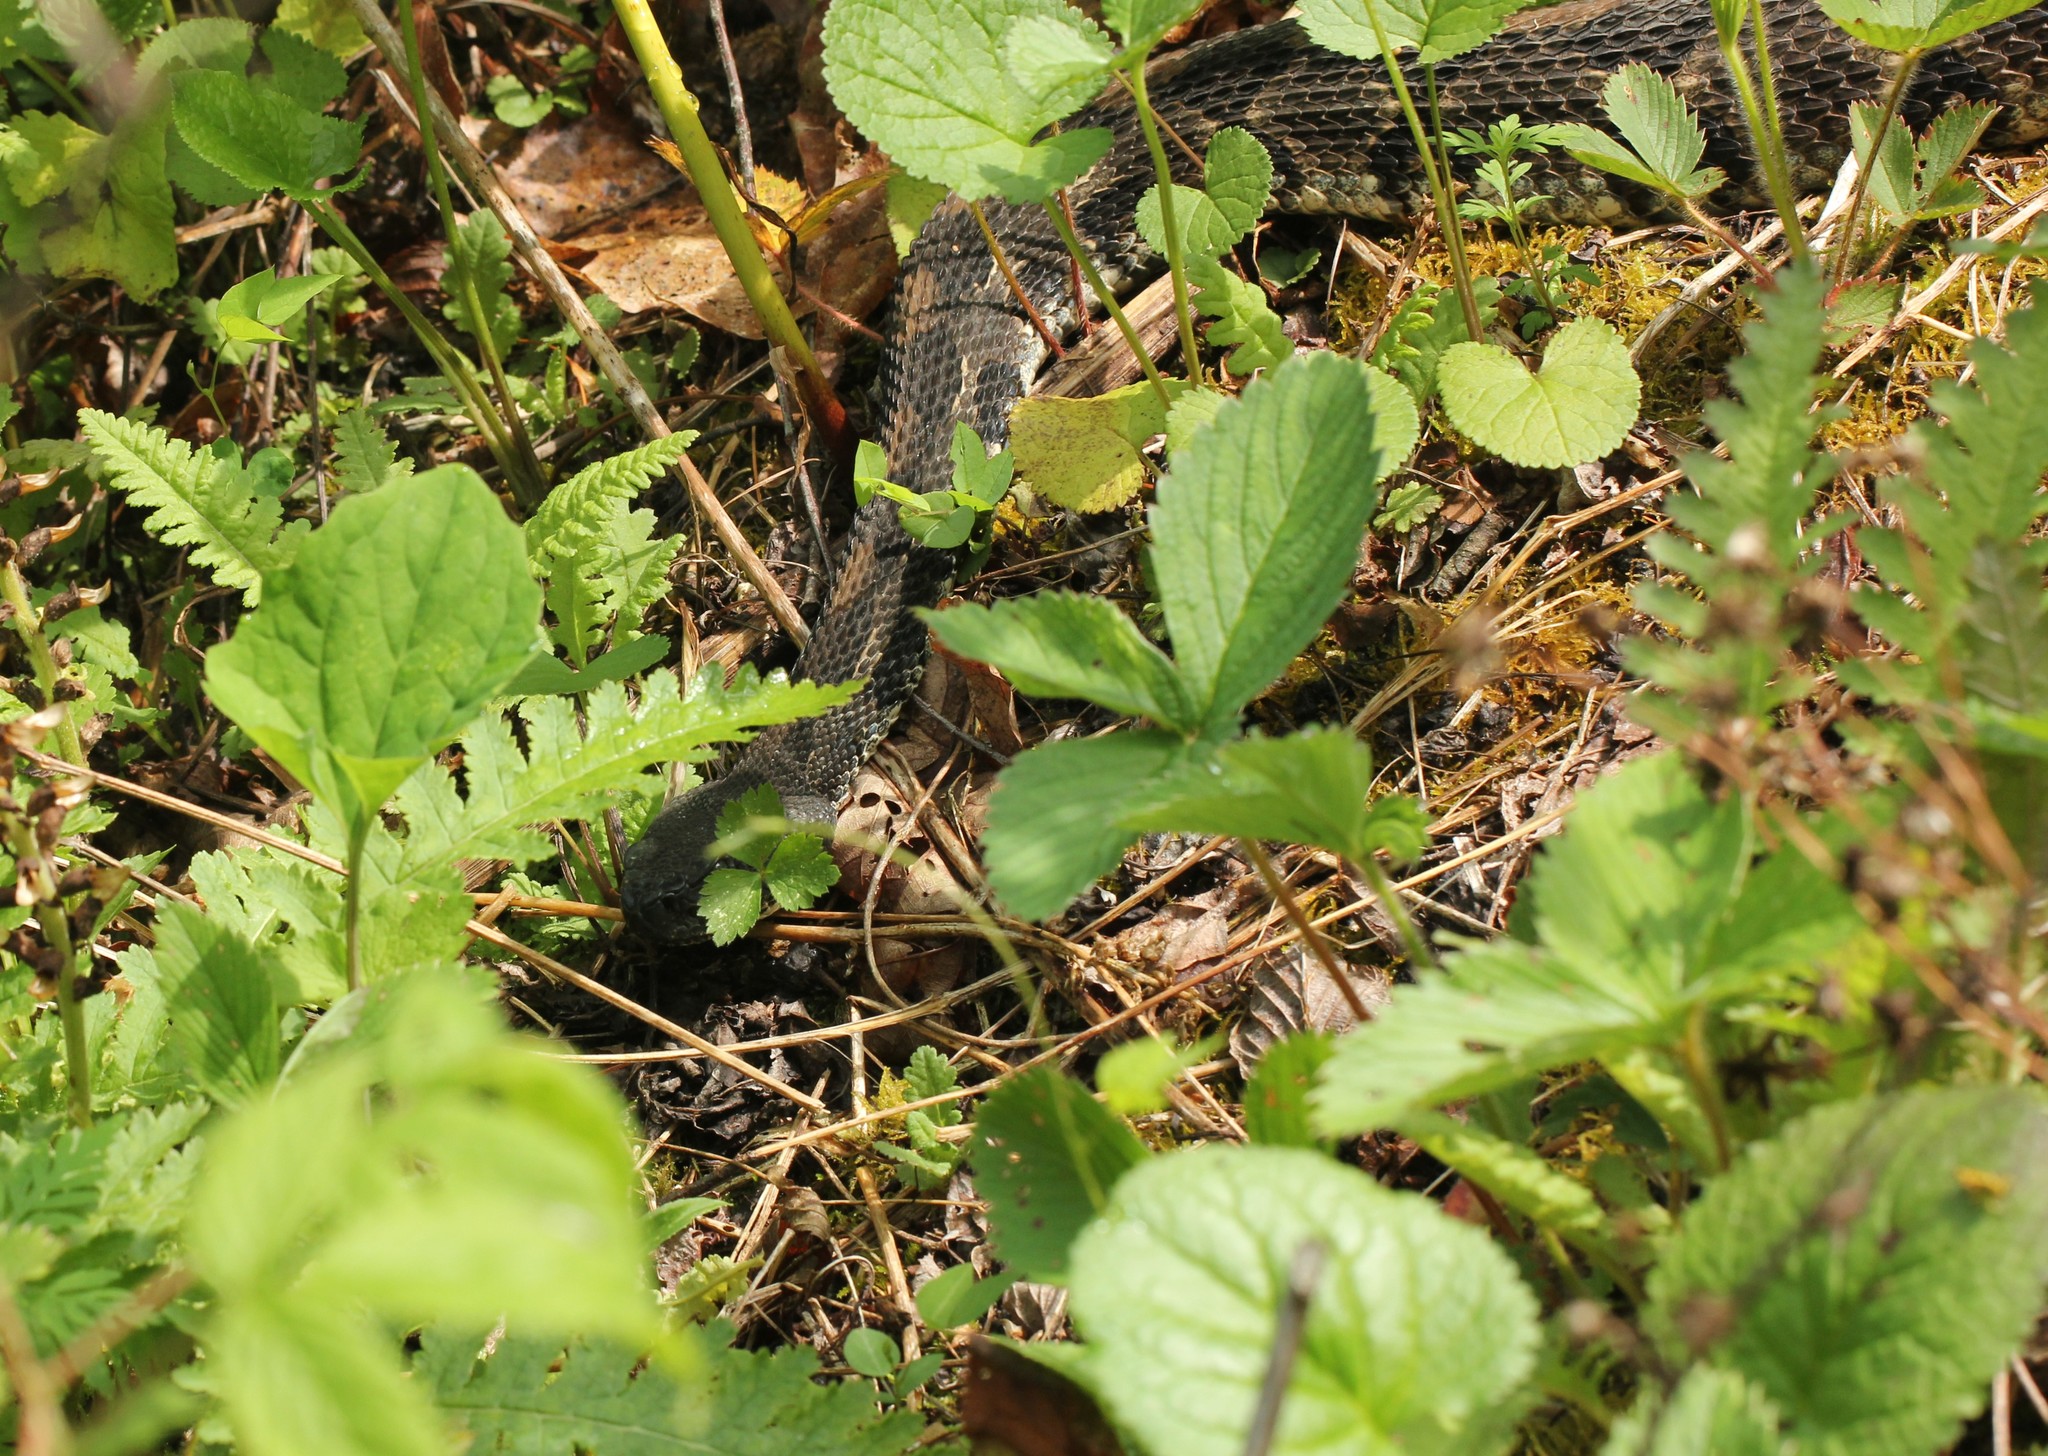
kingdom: Animalia
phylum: Chordata
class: Squamata
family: Viperidae
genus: Crotalus
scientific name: Crotalus horridus
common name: Timber rattlesnake
